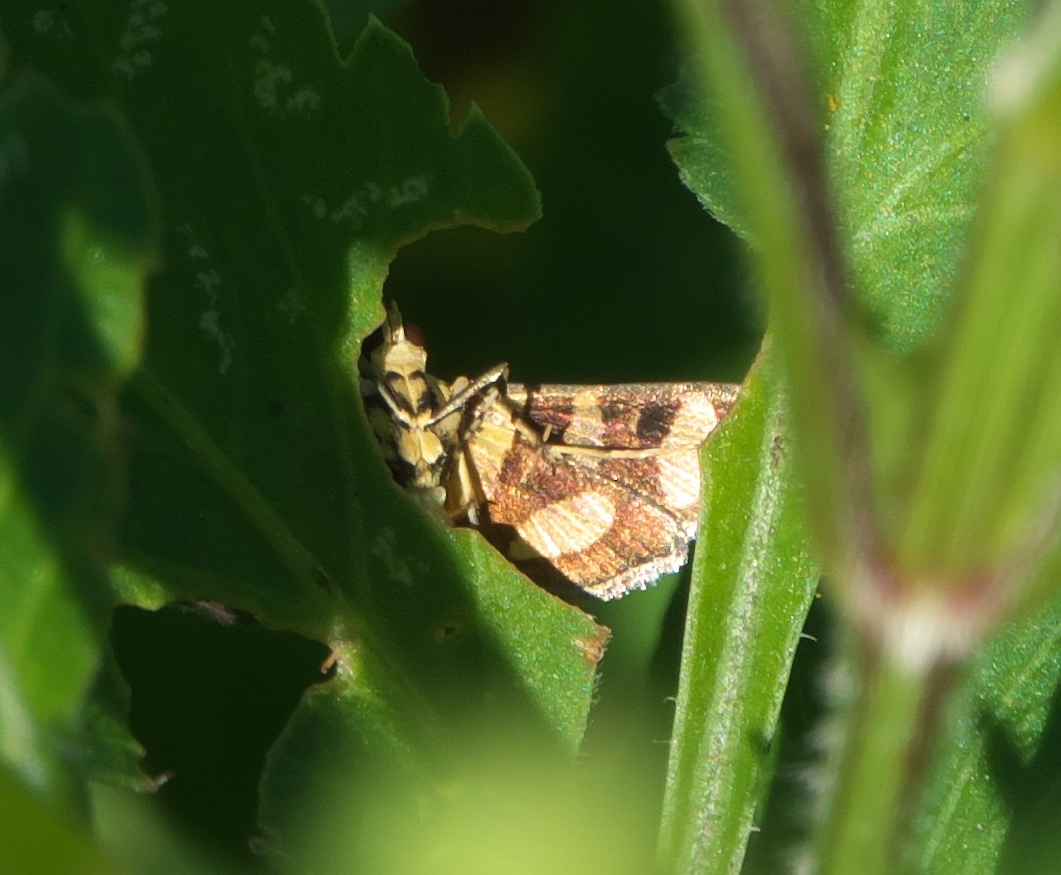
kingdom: Animalia
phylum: Arthropoda
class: Insecta
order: Lepidoptera
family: Crambidae
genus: Syngamia
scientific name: Syngamia florella
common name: Orange-spotted flower moth
